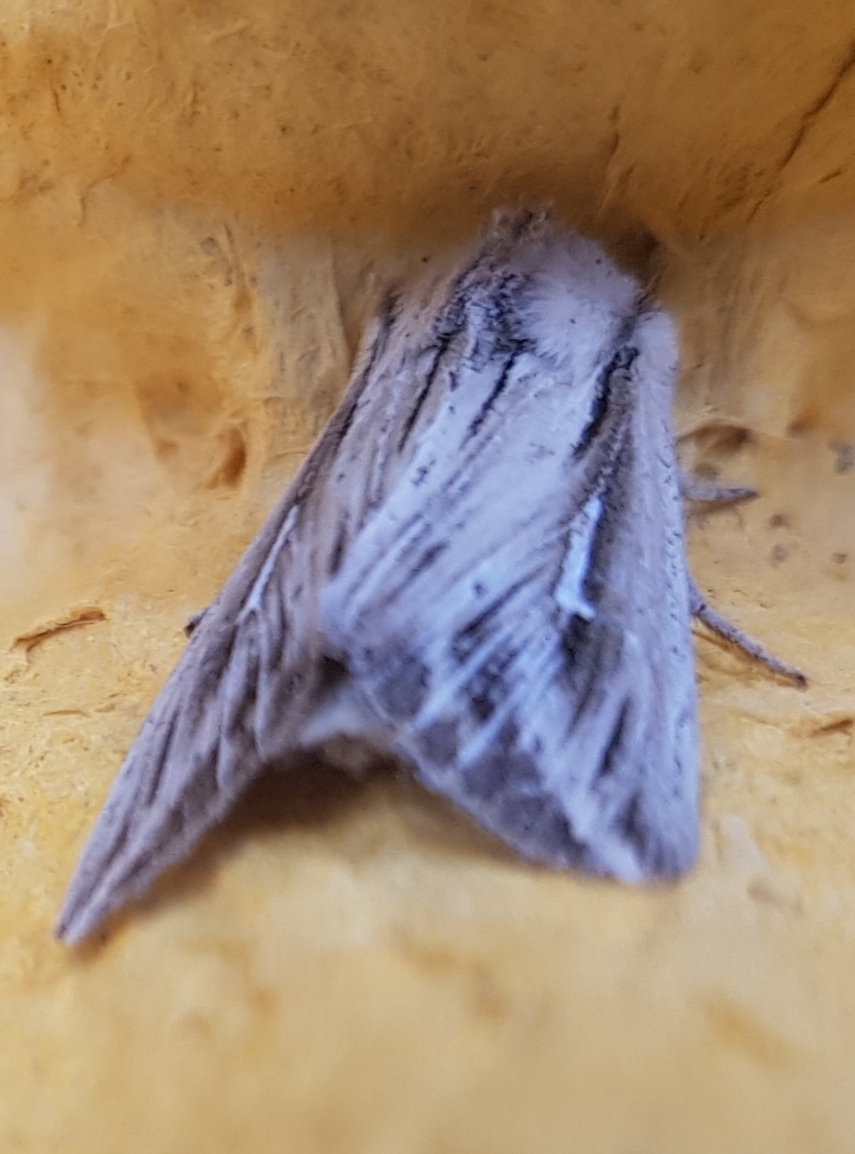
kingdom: Animalia
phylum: Arthropoda
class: Insecta
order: Lepidoptera
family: Noctuidae
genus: Mythimna
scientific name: Mythimna l-album
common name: L-album wainscot
